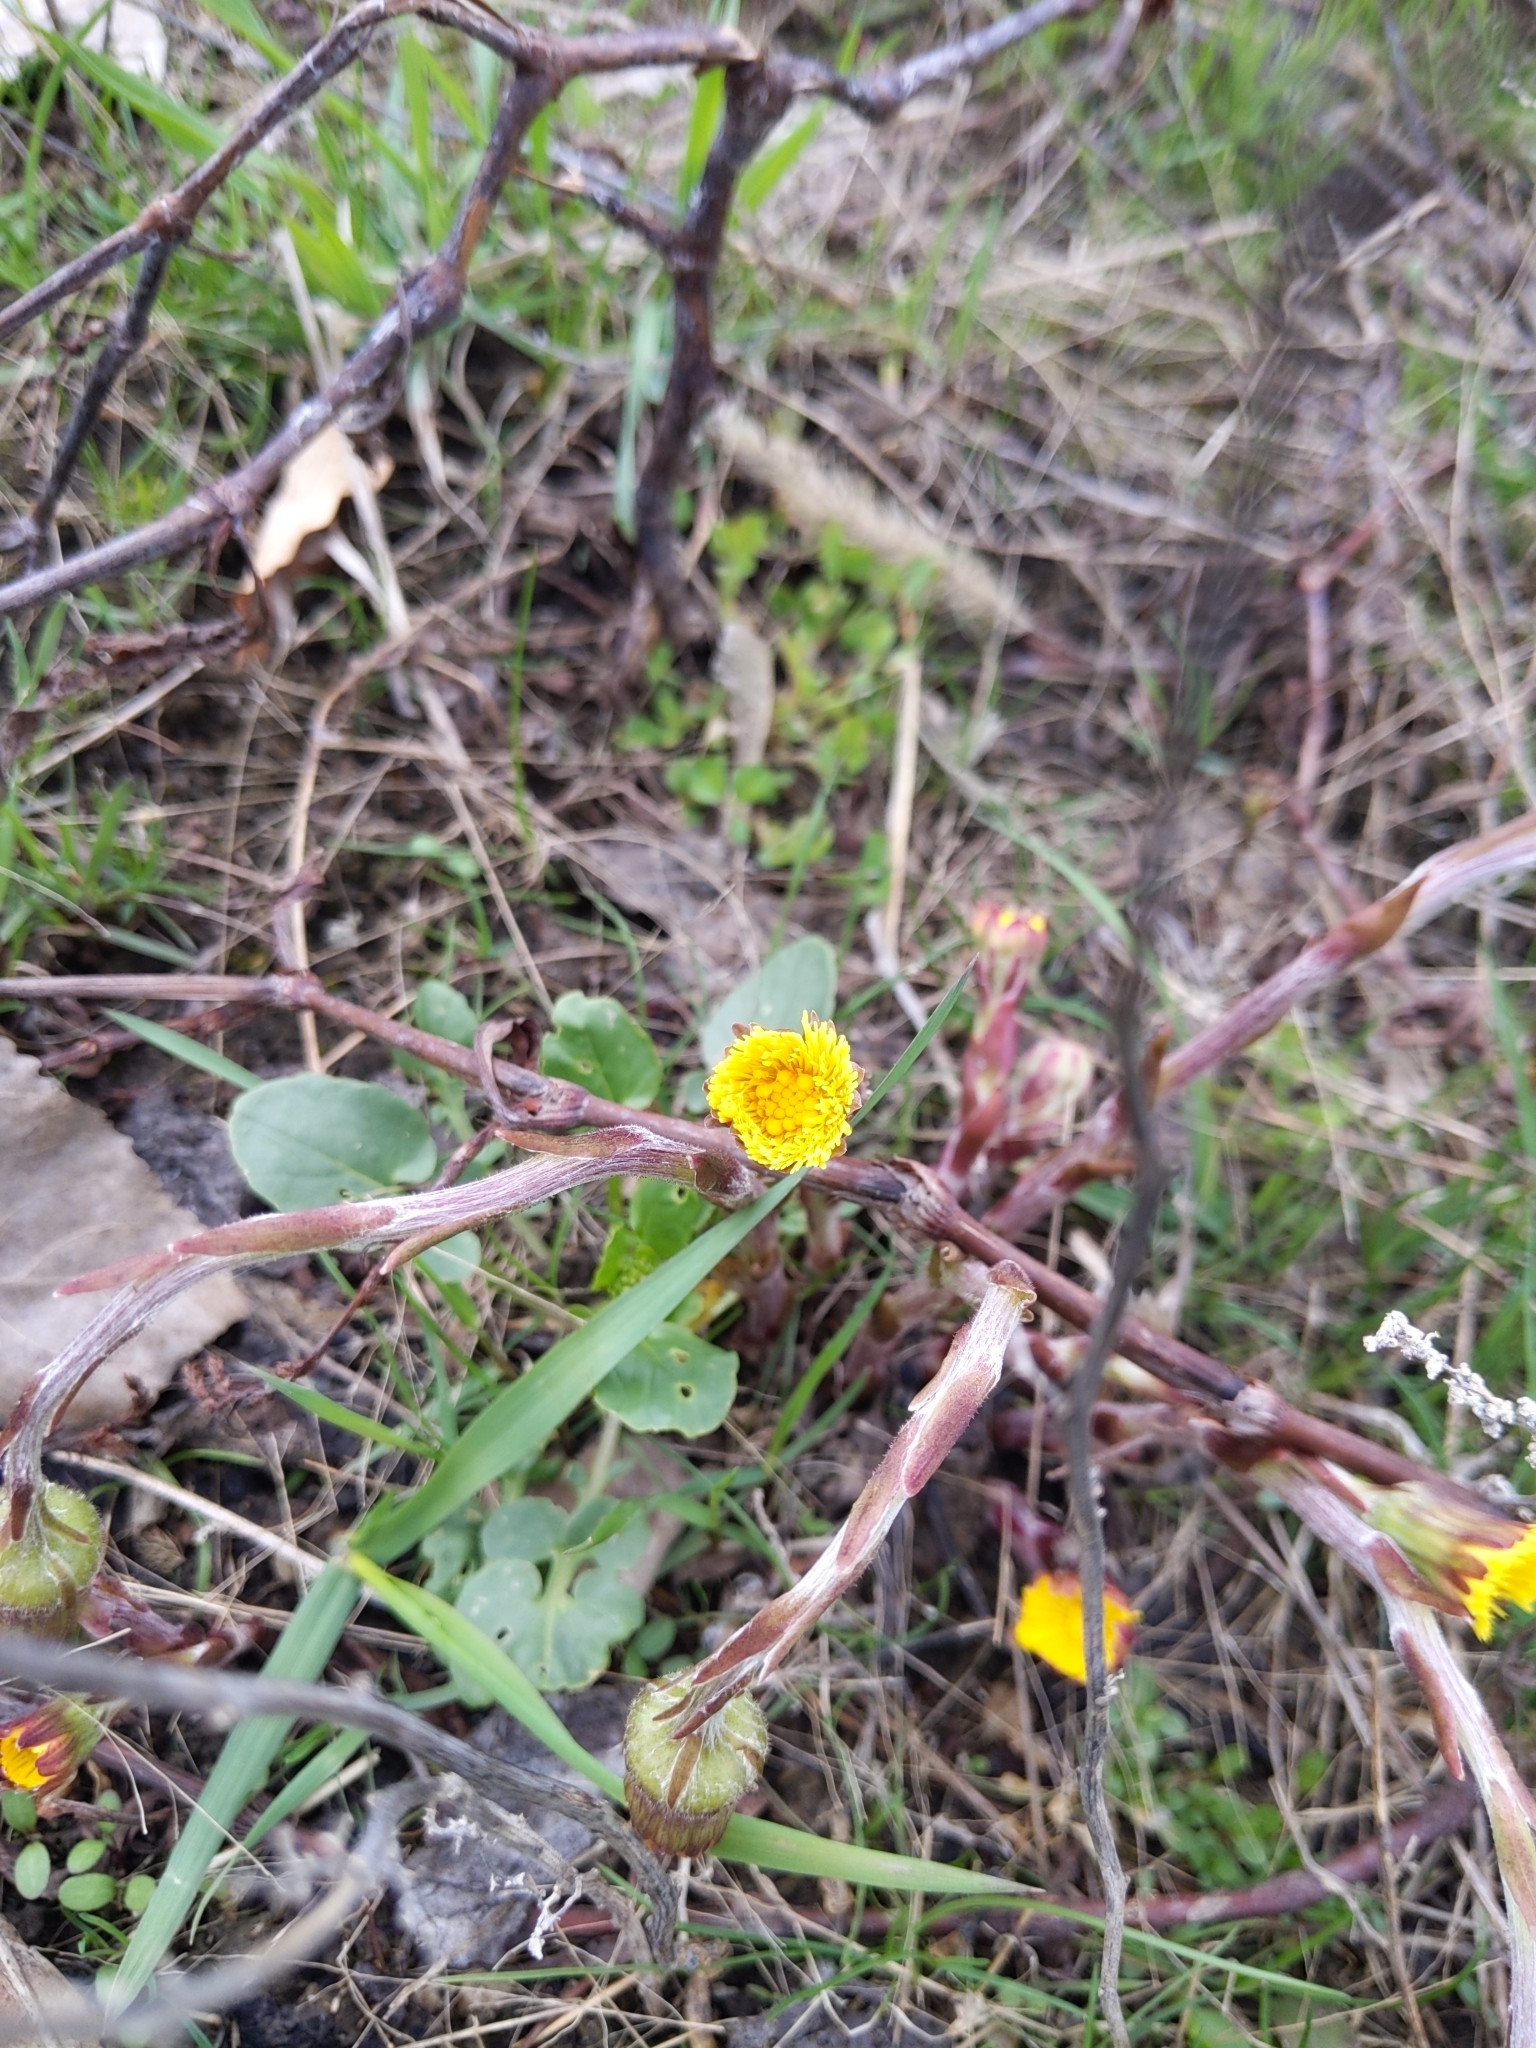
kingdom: Plantae
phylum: Tracheophyta
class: Magnoliopsida
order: Asterales
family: Asteraceae
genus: Tussilago
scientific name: Tussilago farfara
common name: Coltsfoot
